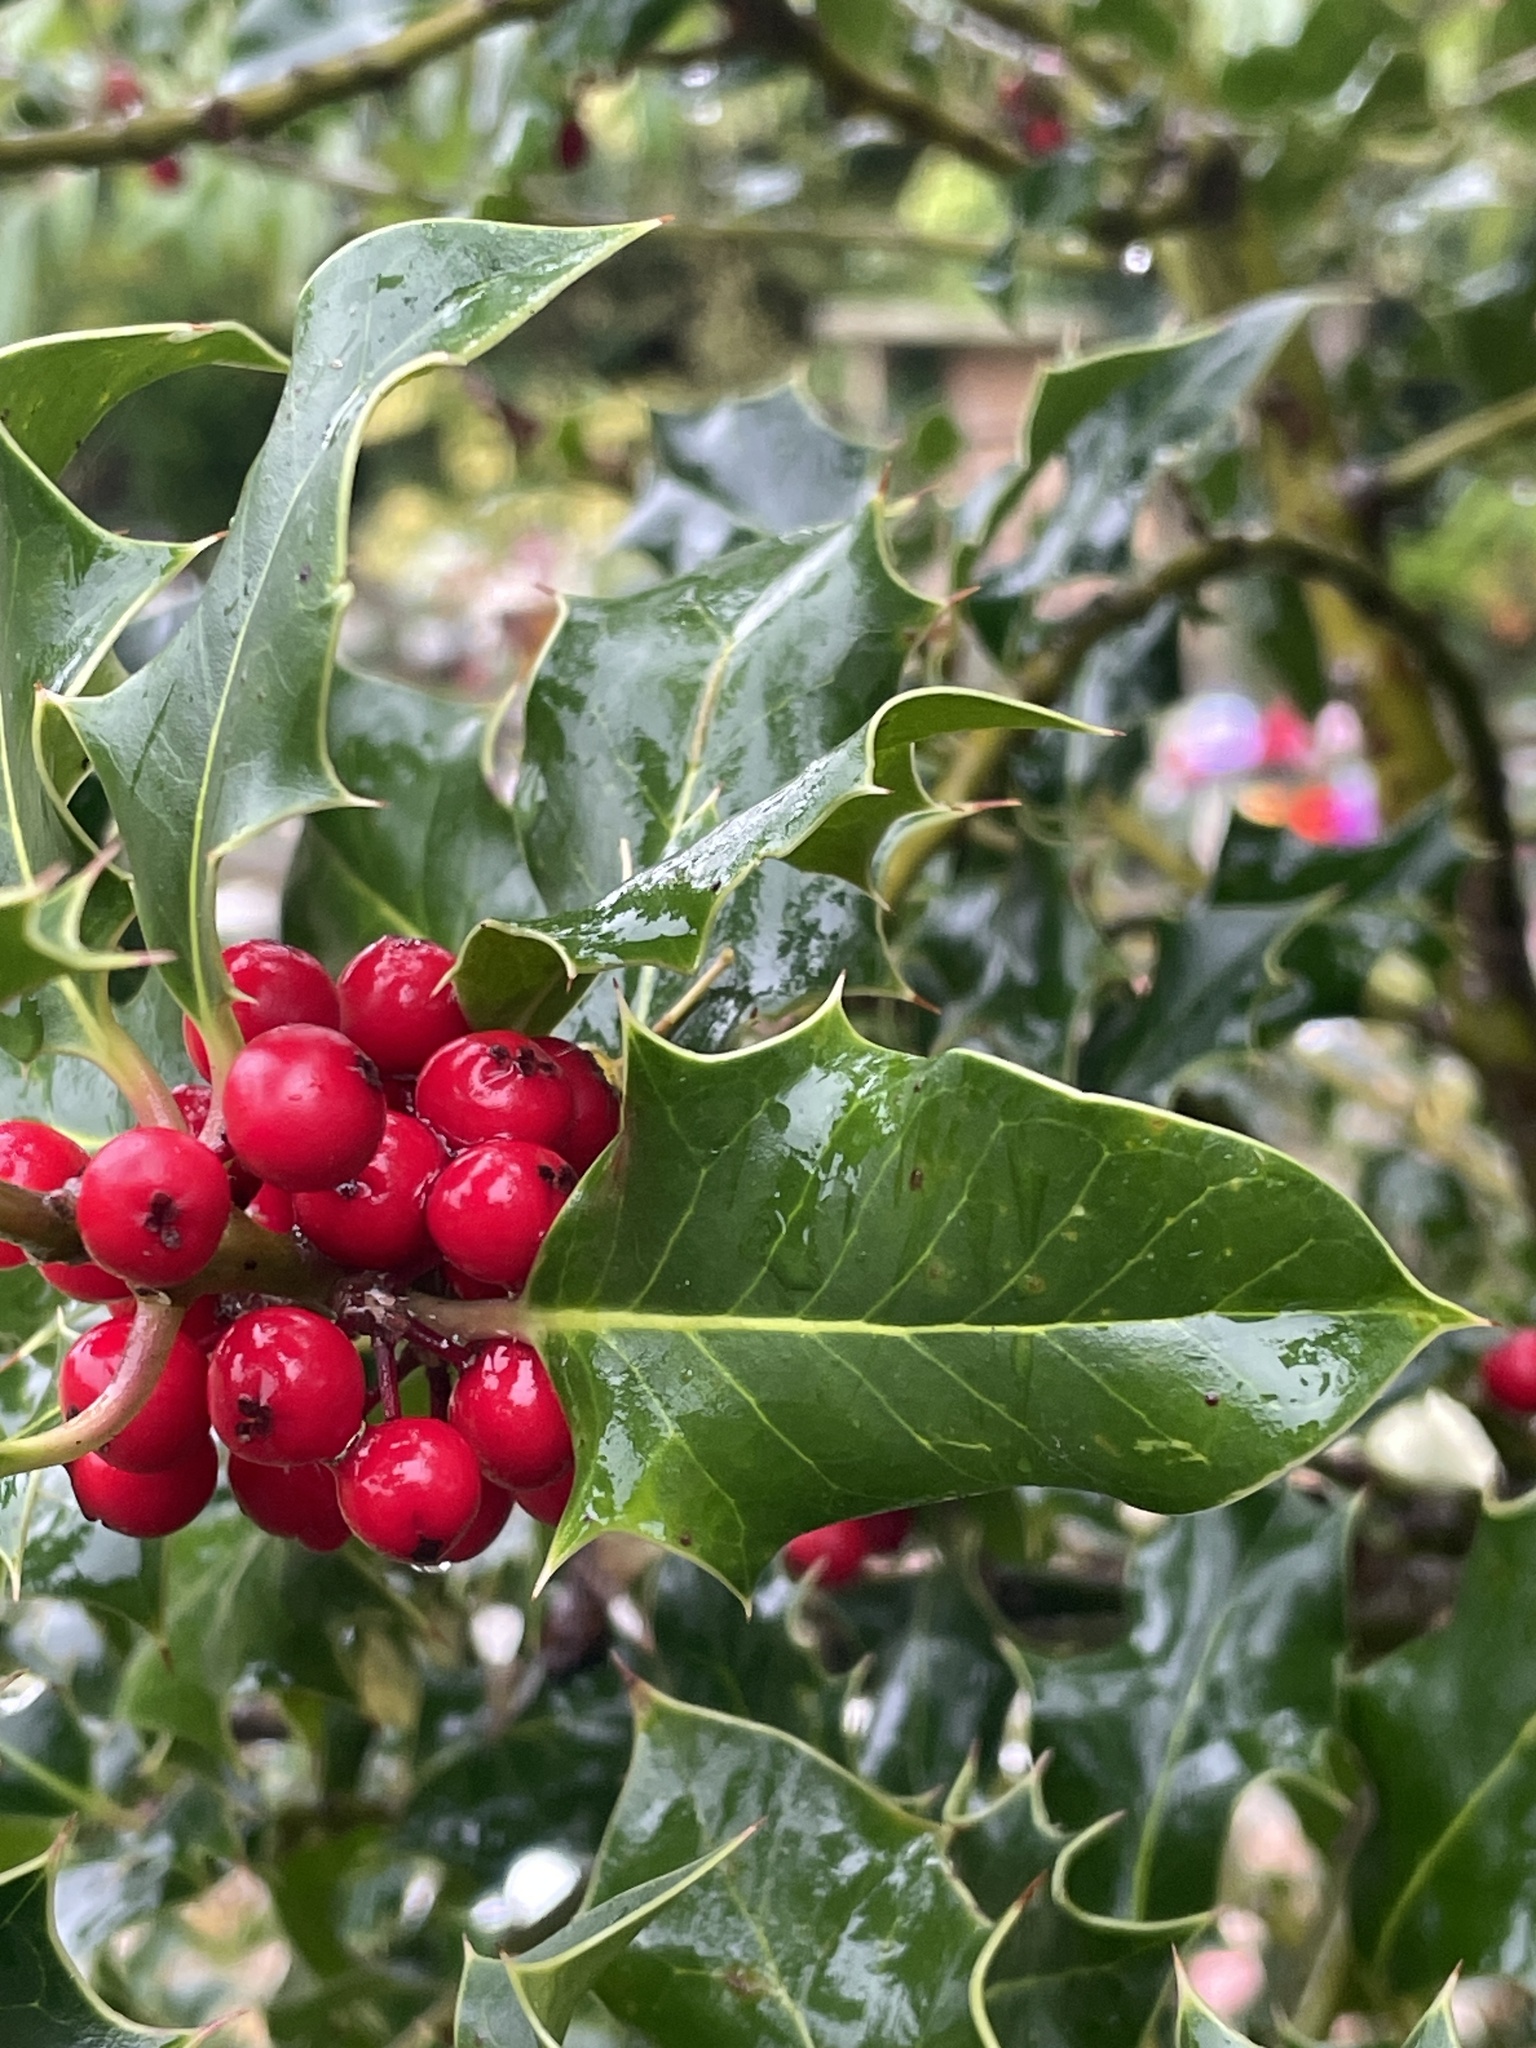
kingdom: Plantae
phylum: Tracheophyta
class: Magnoliopsida
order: Aquifoliales
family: Aquifoliaceae
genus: Ilex
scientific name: Ilex aquifolium
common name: English holly
